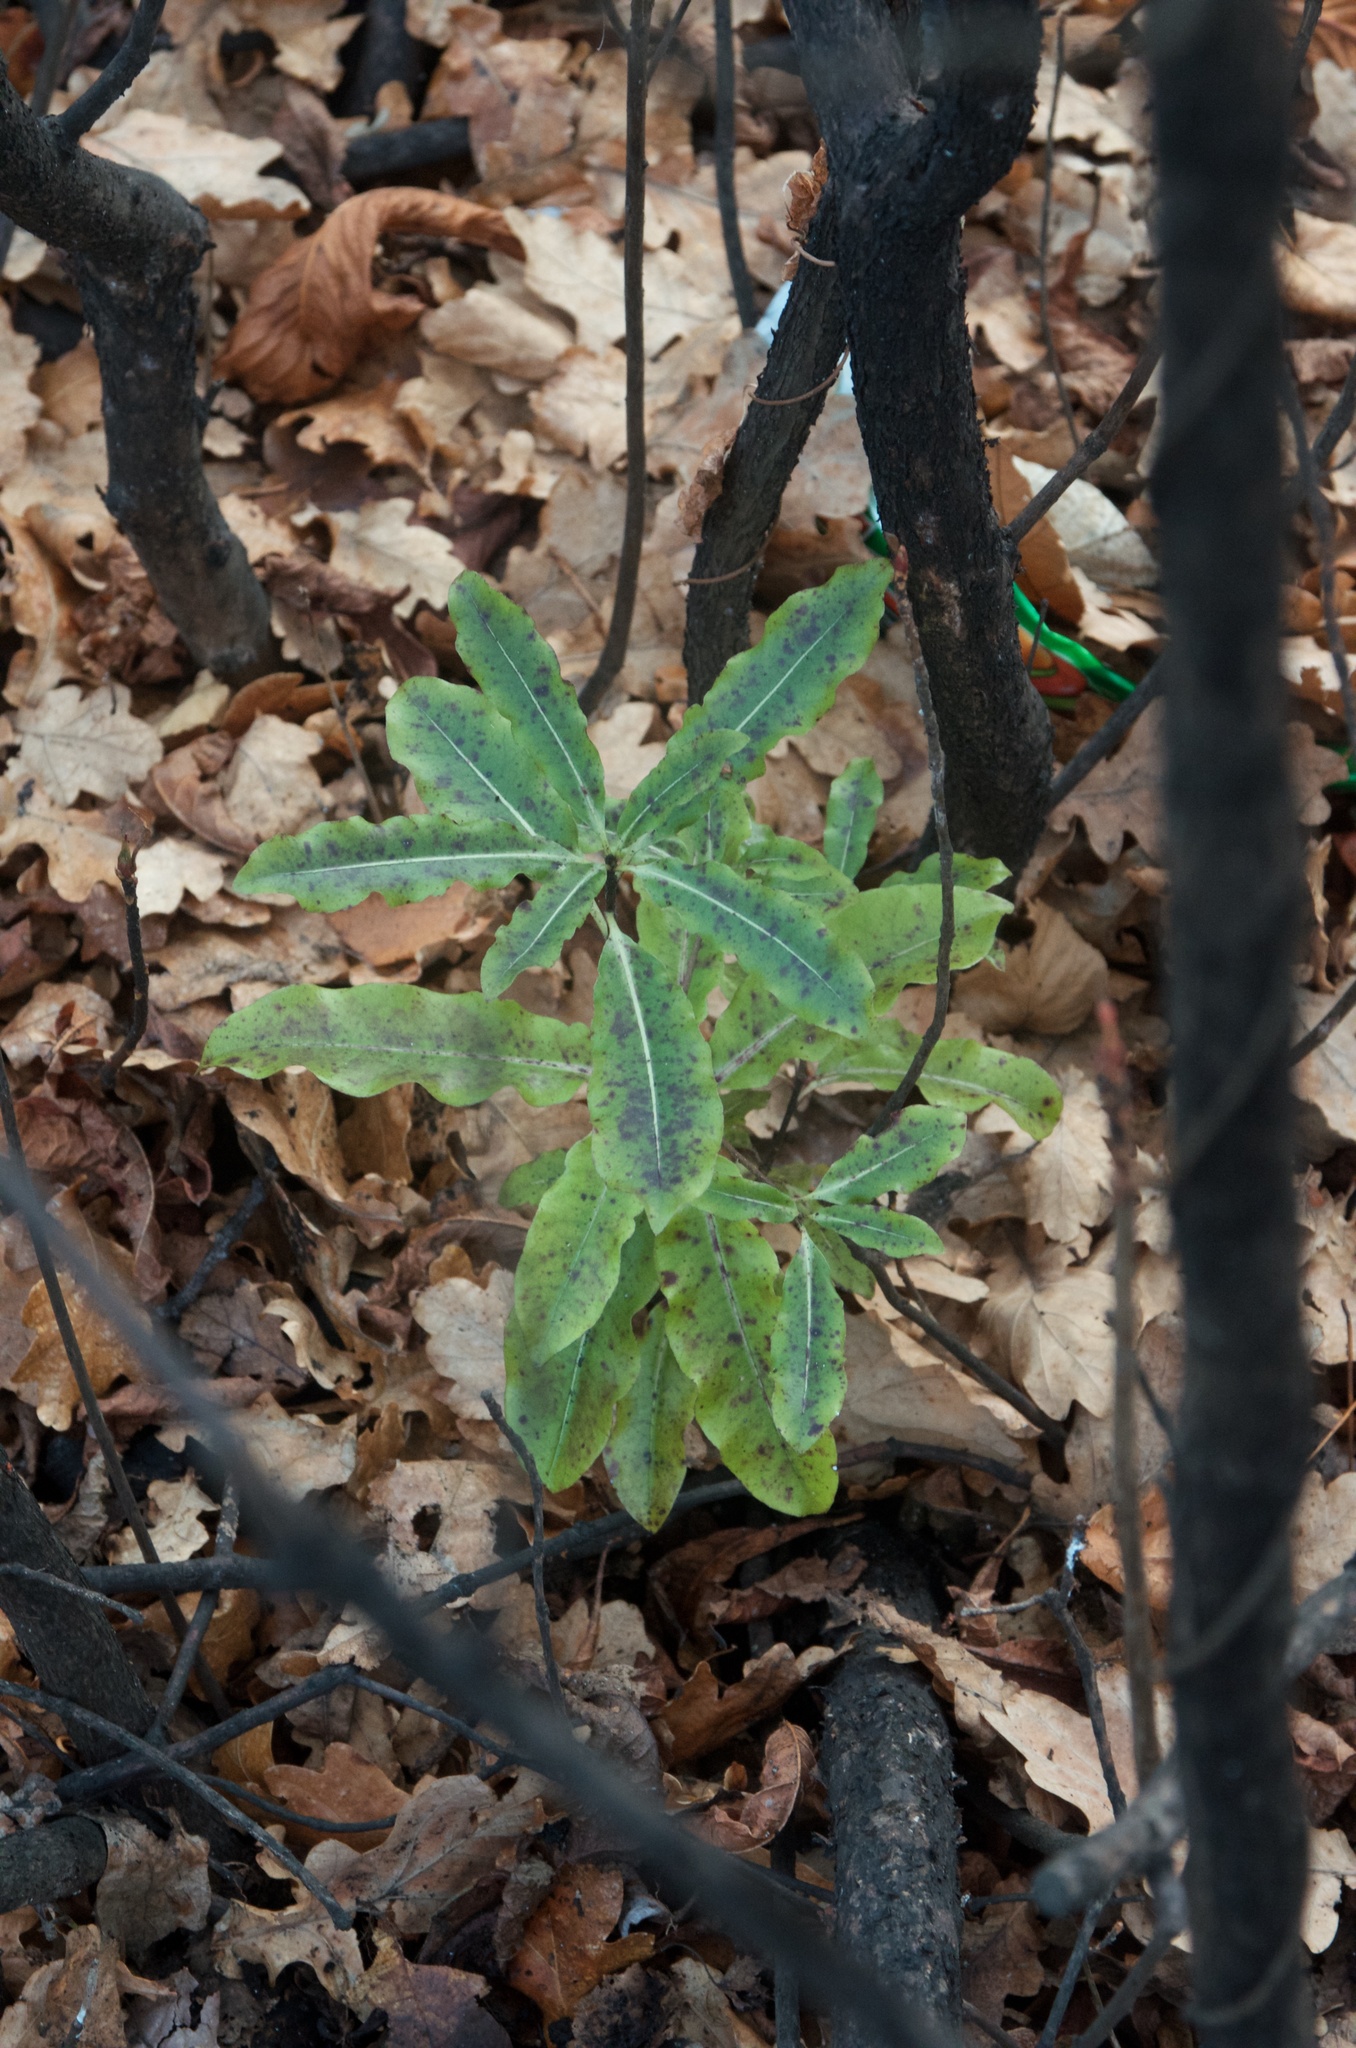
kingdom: Plantae
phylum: Tracheophyta
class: Magnoliopsida
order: Apiales
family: Pittosporaceae
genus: Pittosporum
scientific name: Pittosporum eugenioides
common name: Lemonwood
